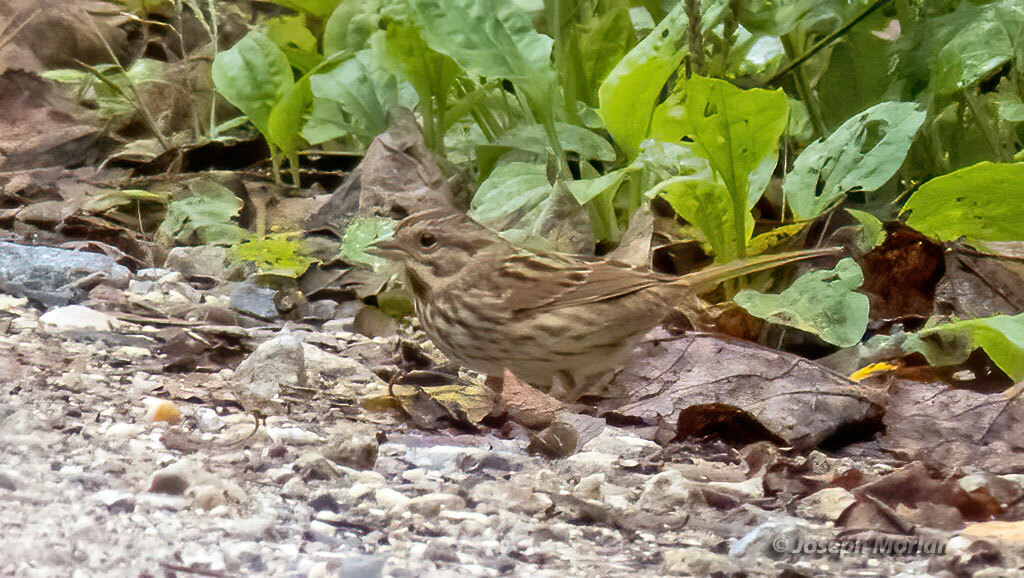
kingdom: Animalia
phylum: Chordata
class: Aves
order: Passeriformes
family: Passerellidae
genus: Melospiza
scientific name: Melospiza melodia
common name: Song sparrow
